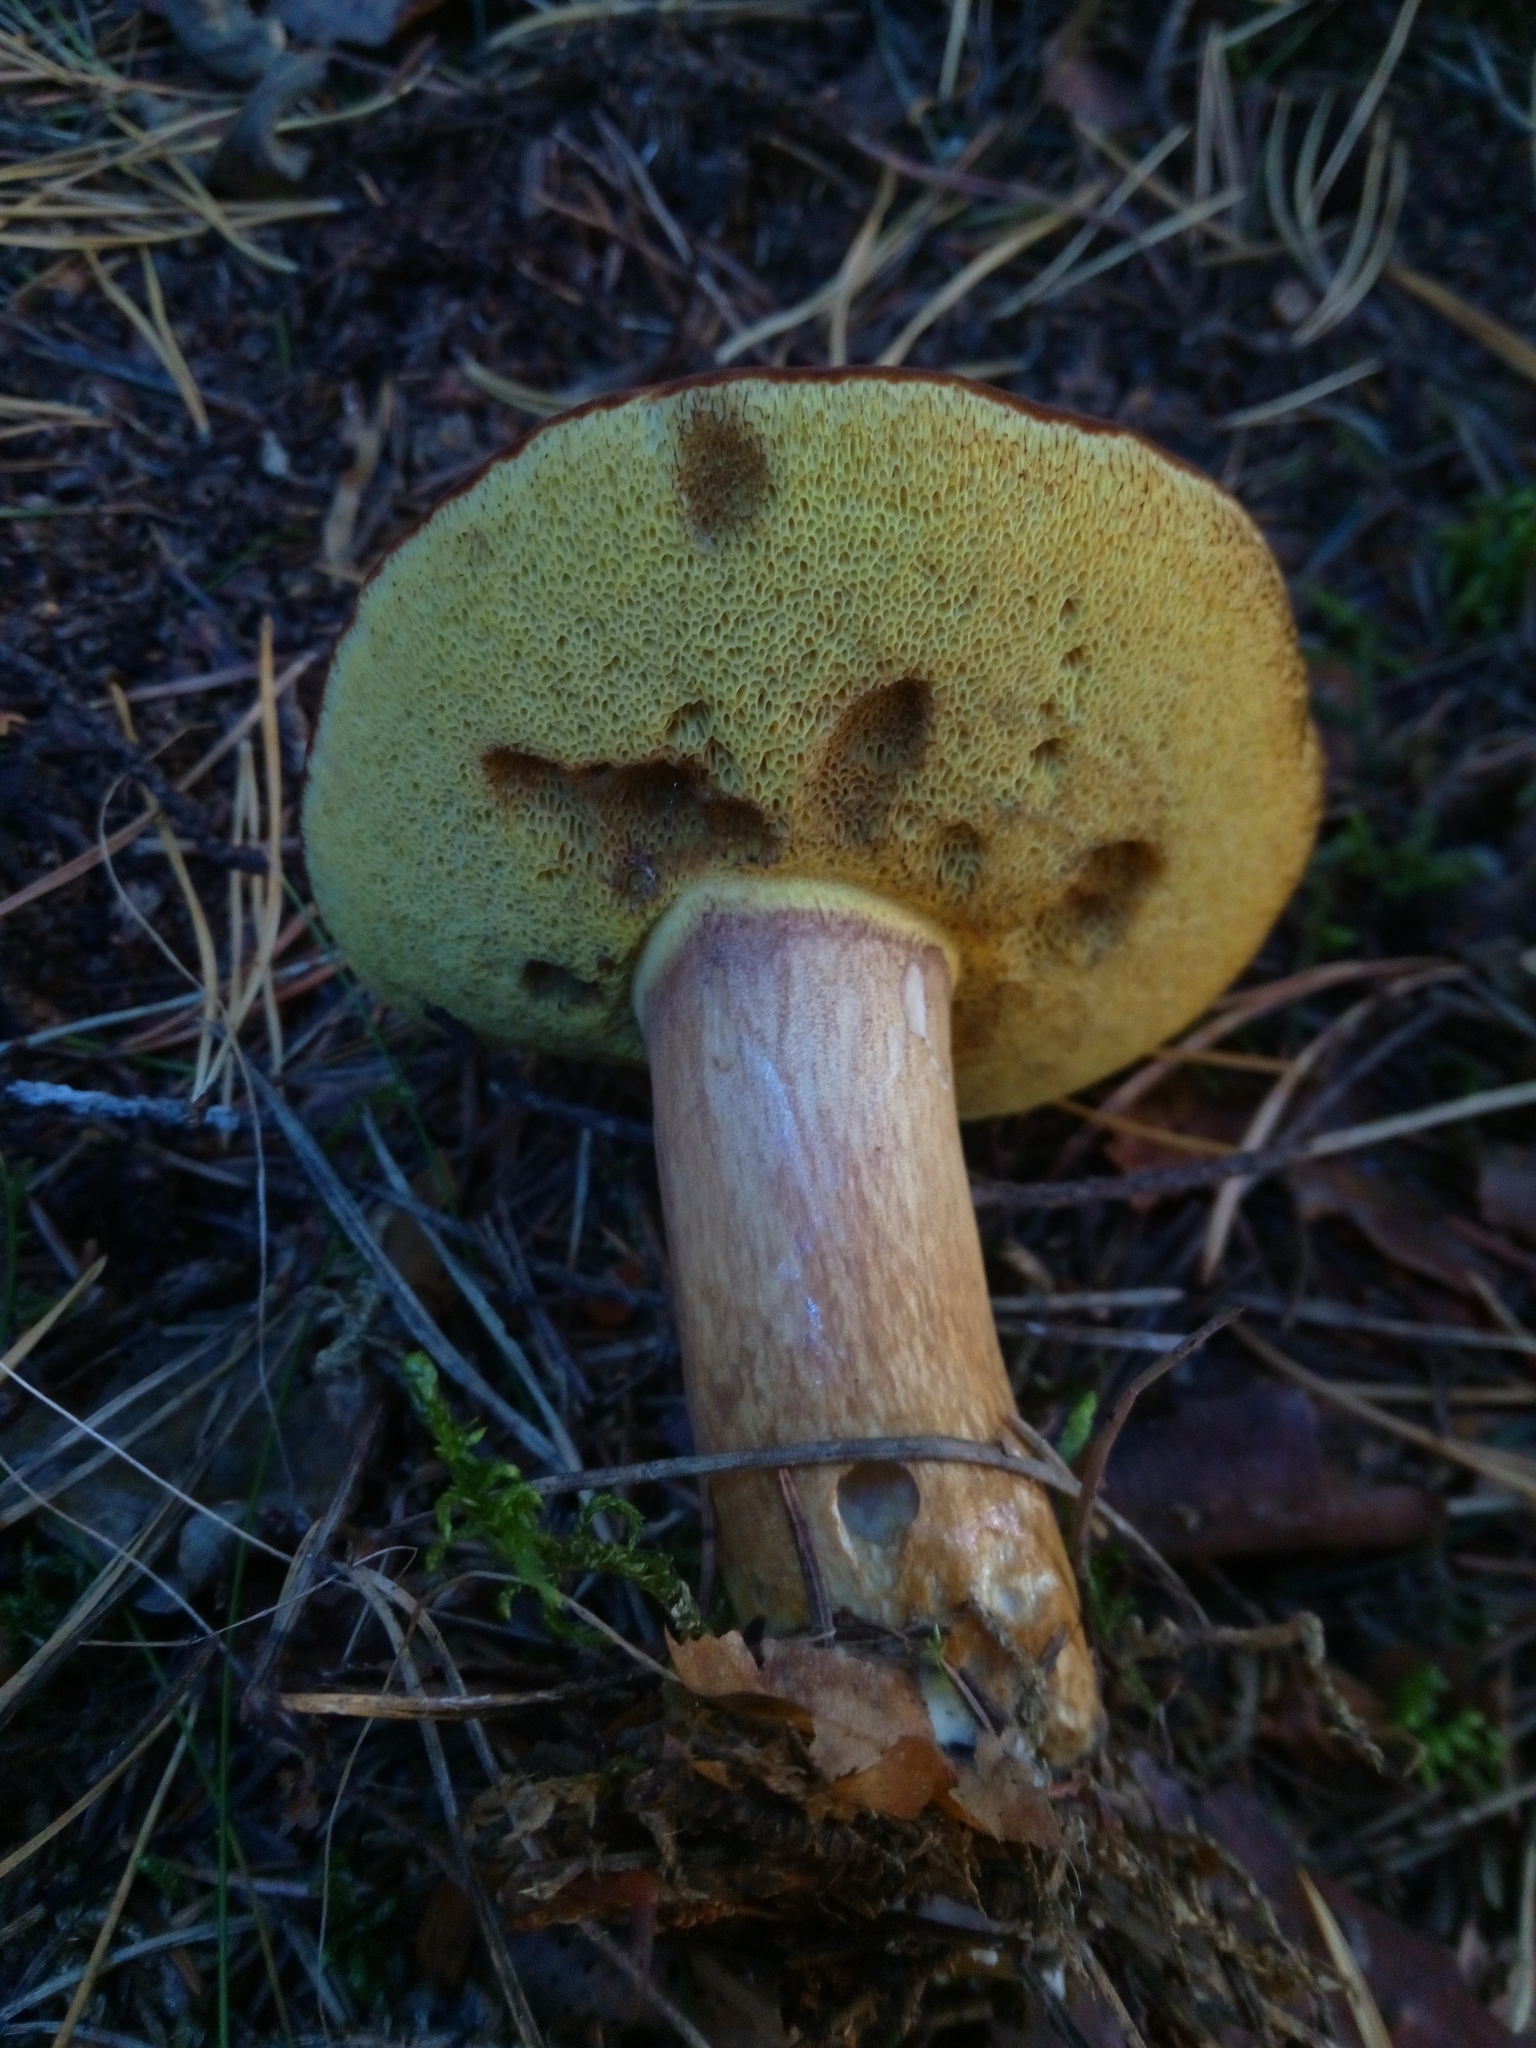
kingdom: Fungi
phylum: Basidiomycota
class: Agaricomycetes
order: Boletales
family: Boletaceae
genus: Imleria
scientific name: Imleria badia
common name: Bay bolete
